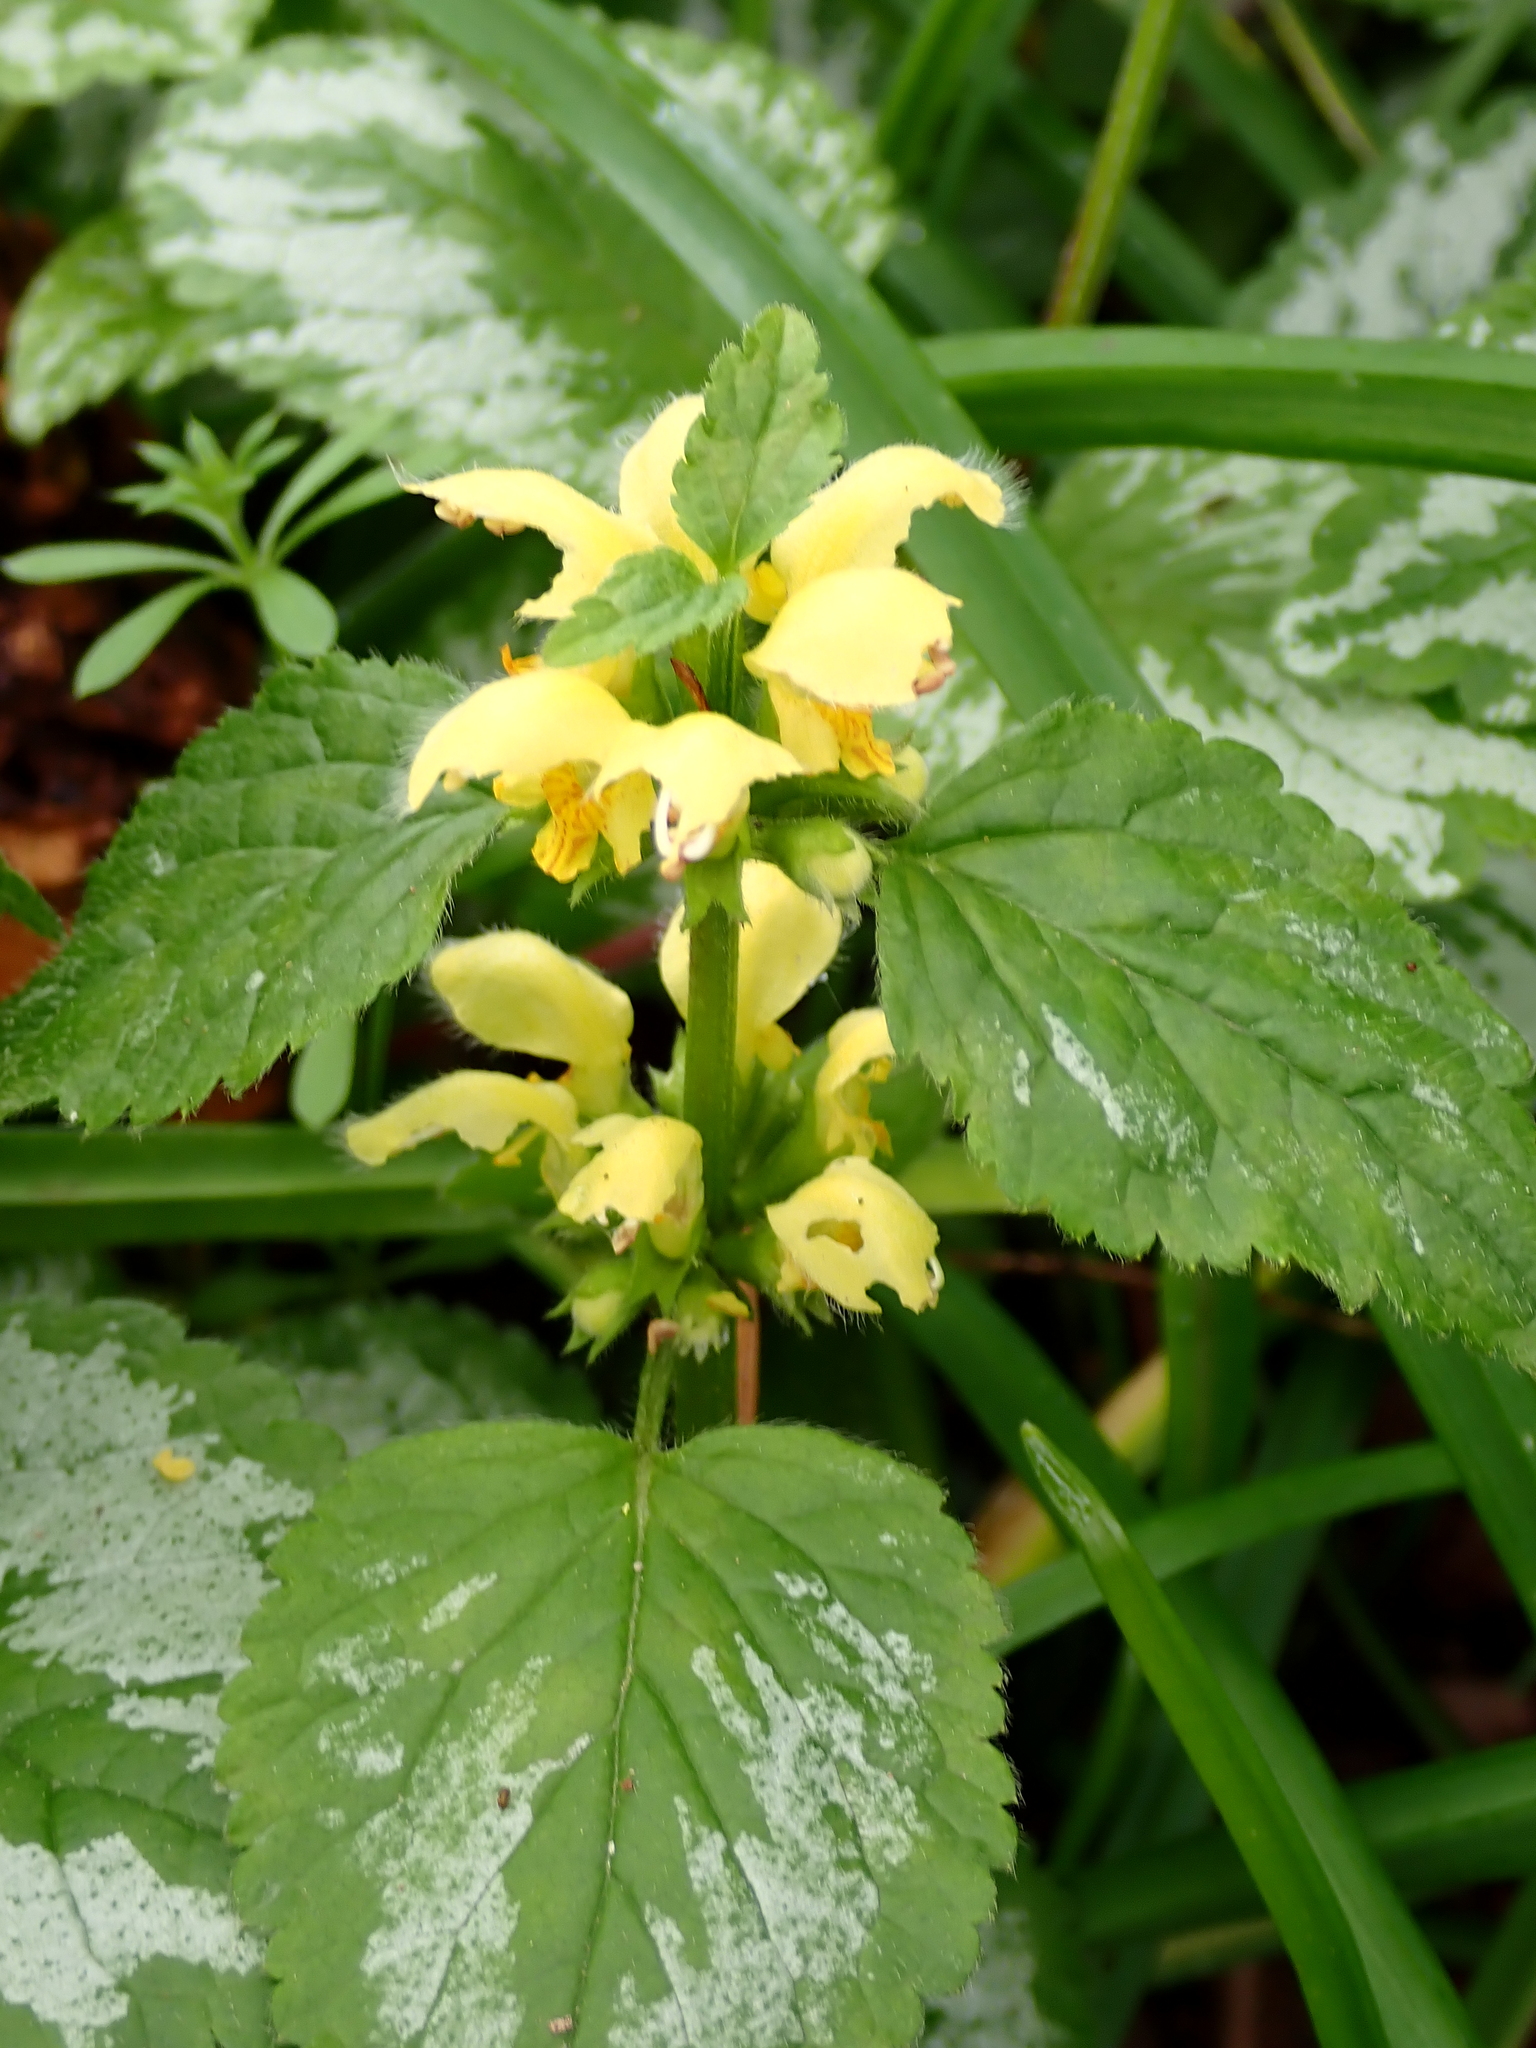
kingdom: Plantae
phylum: Tracheophyta
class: Magnoliopsida
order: Lamiales
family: Lamiaceae
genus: Lamium
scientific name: Lamium galeobdolon
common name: Yellow archangel
